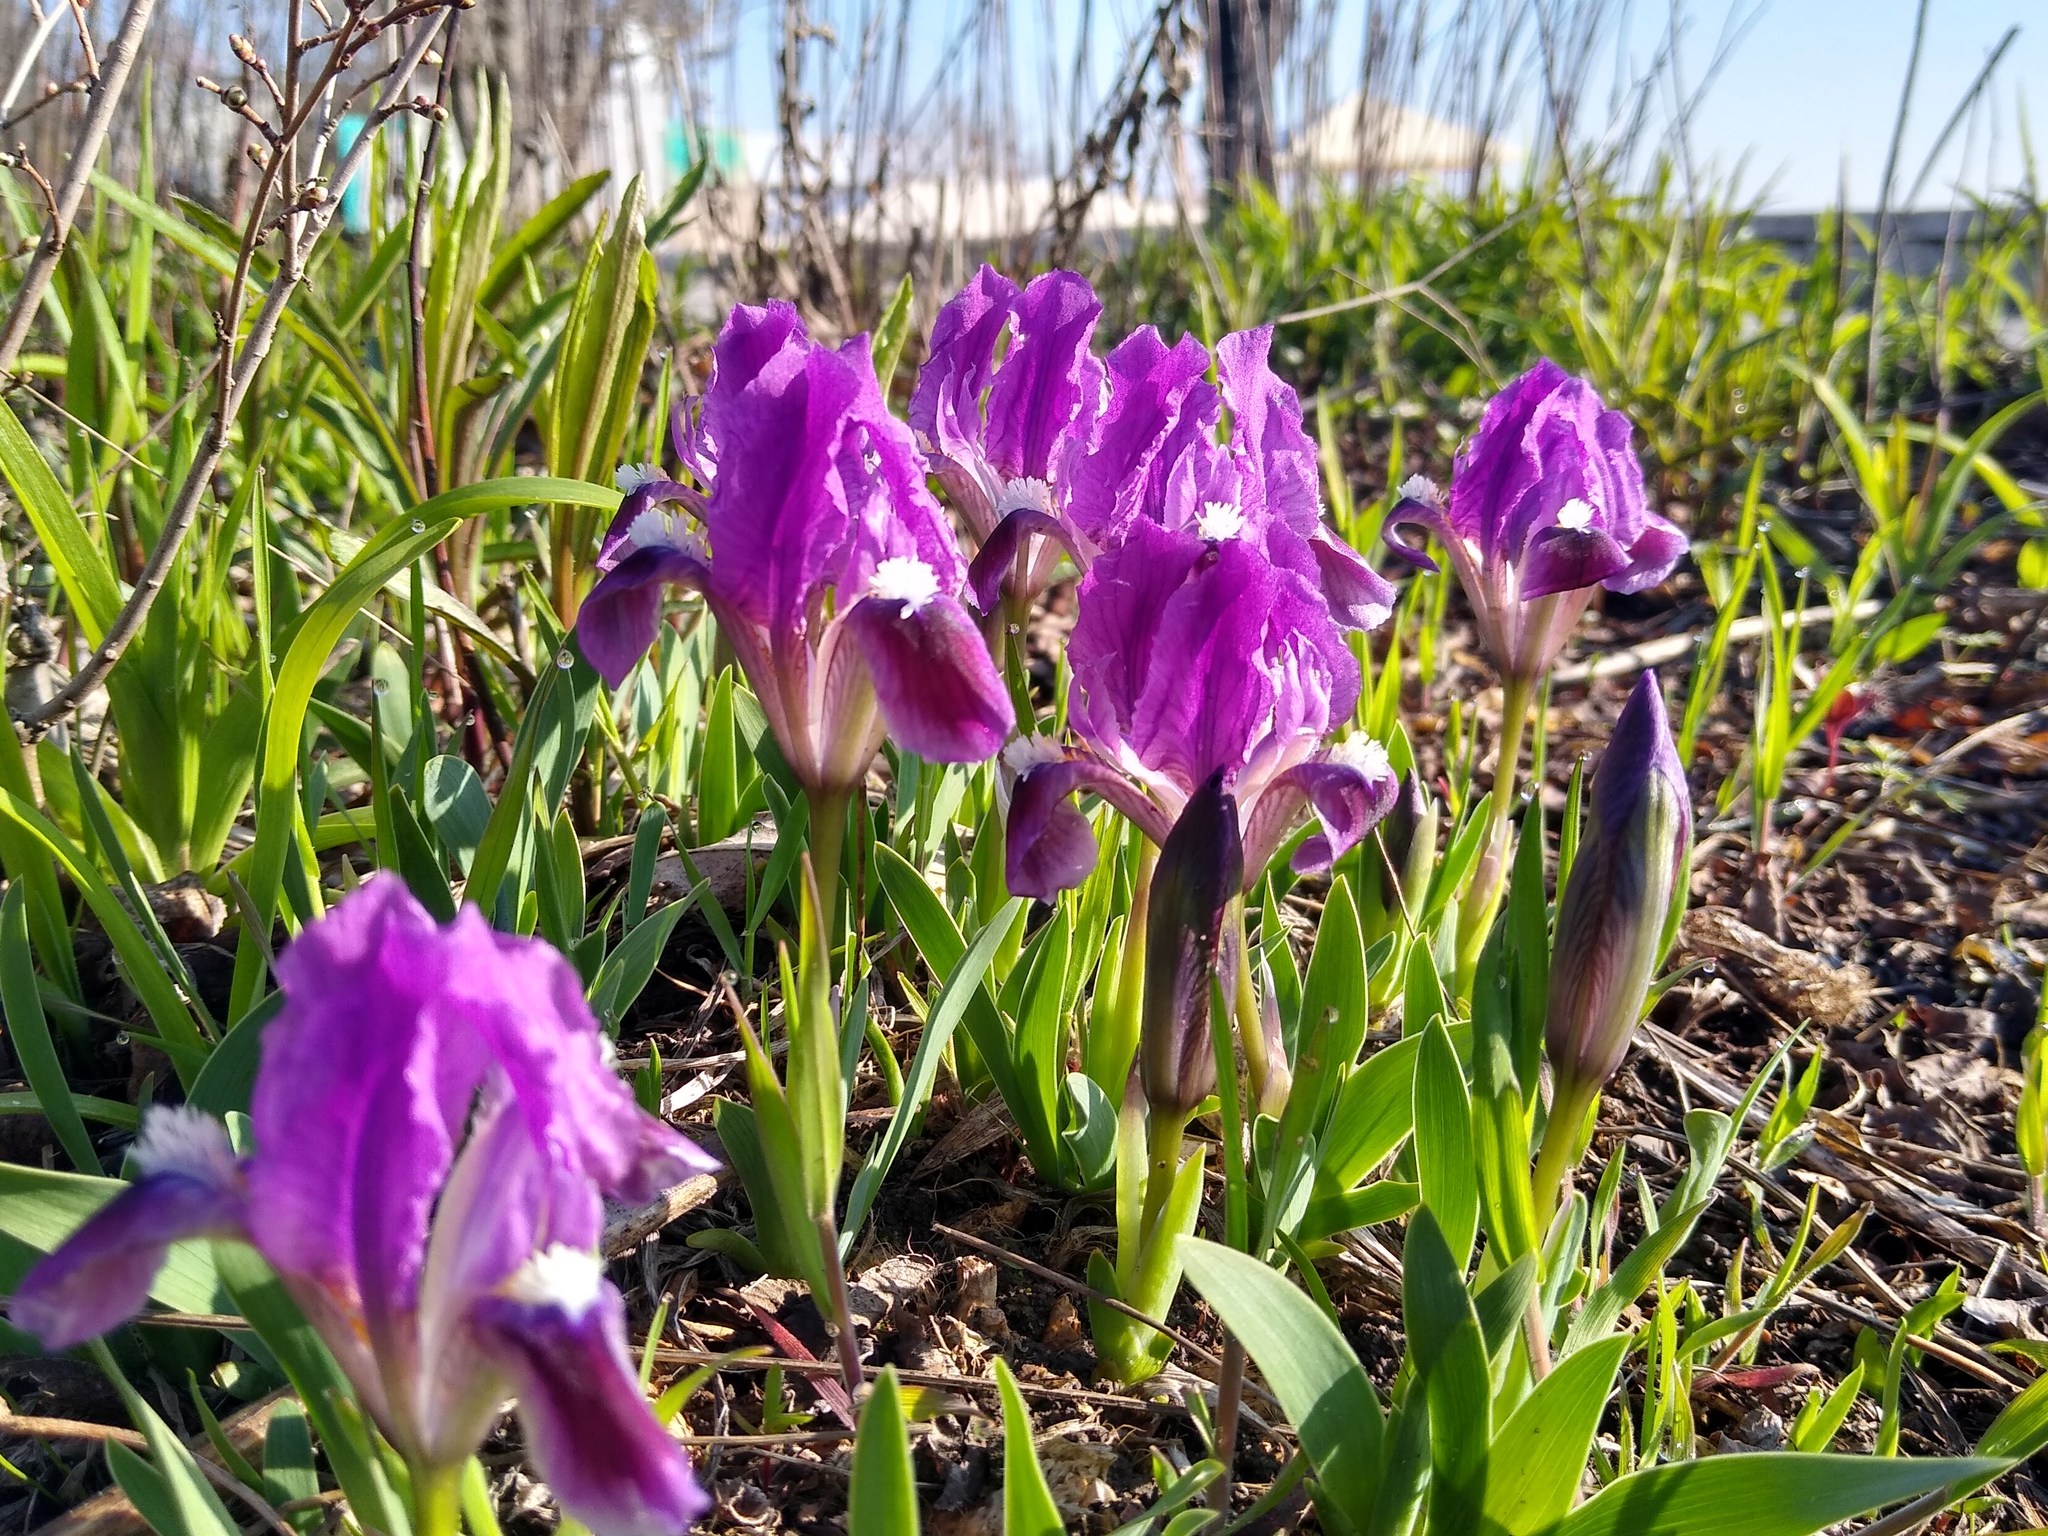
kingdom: Plantae
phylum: Tracheophyta
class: Liliopsida
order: Asparagales
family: Iridaceae
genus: Iris
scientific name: Iris pumila
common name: Dwarf iris
